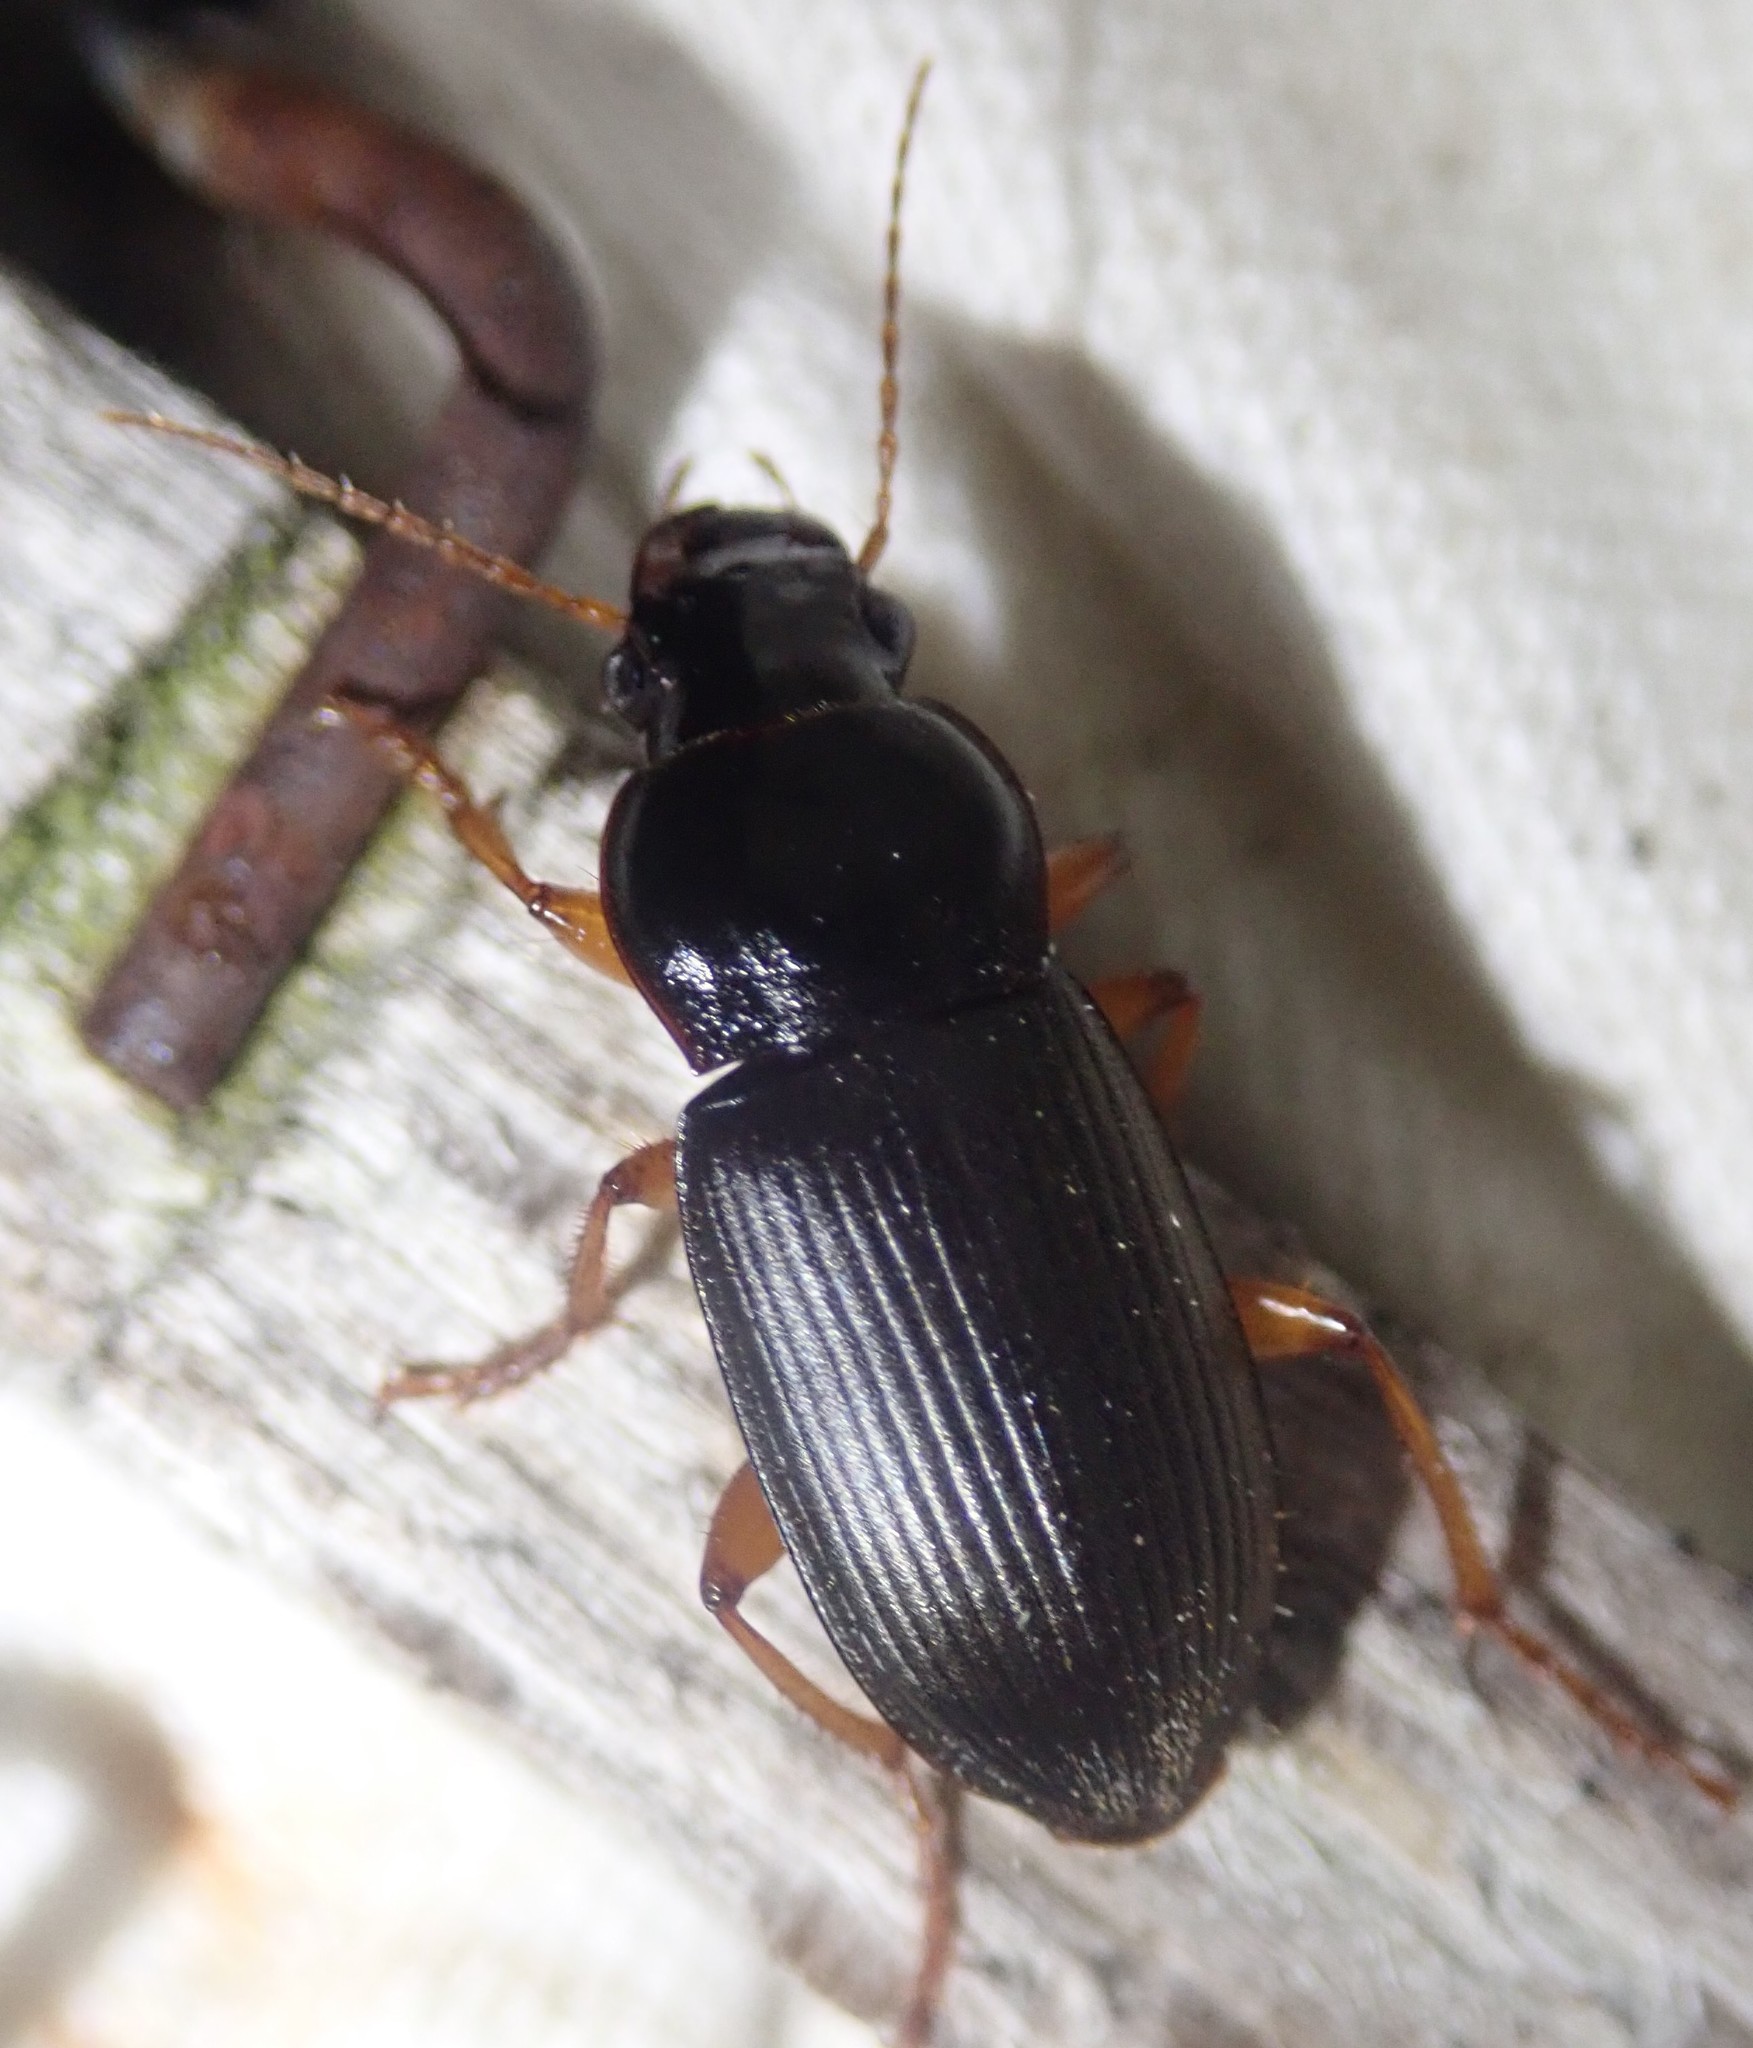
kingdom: Animalia
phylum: Arthropoda
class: Insecta
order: Coleoptera
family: Carabidae
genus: Harpalus
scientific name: Harpalus rufipes
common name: Strawberry harp ground beetle
